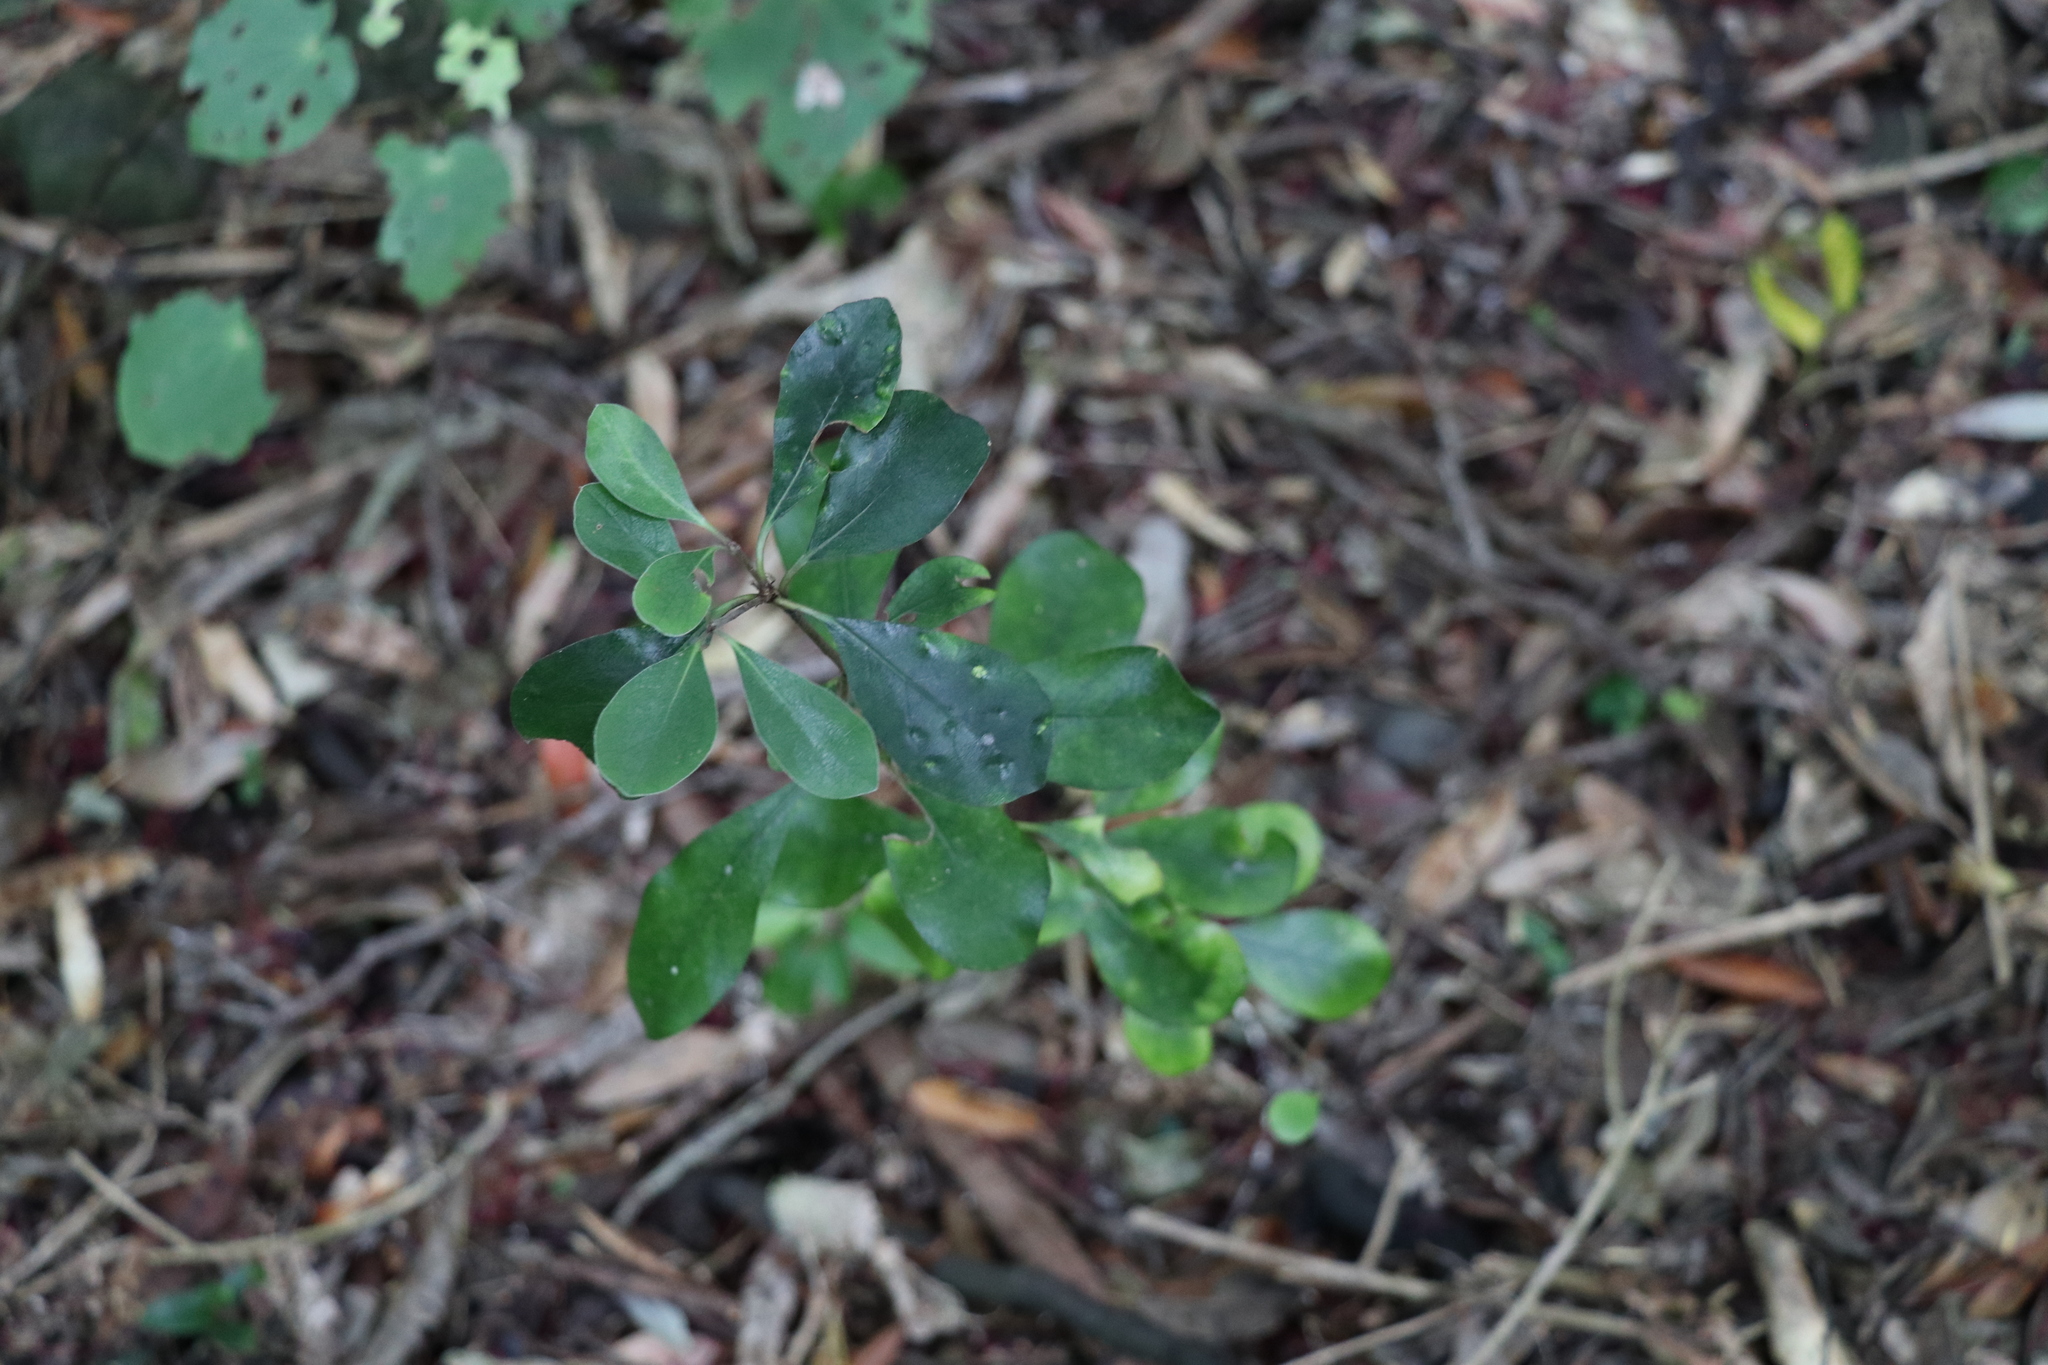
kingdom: Plantae
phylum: Tracheophyta
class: Magnoliopsida
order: Apiales
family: Pittosporaceae
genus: Pittosporum
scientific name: Pittosporum crassifolium
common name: Karo
